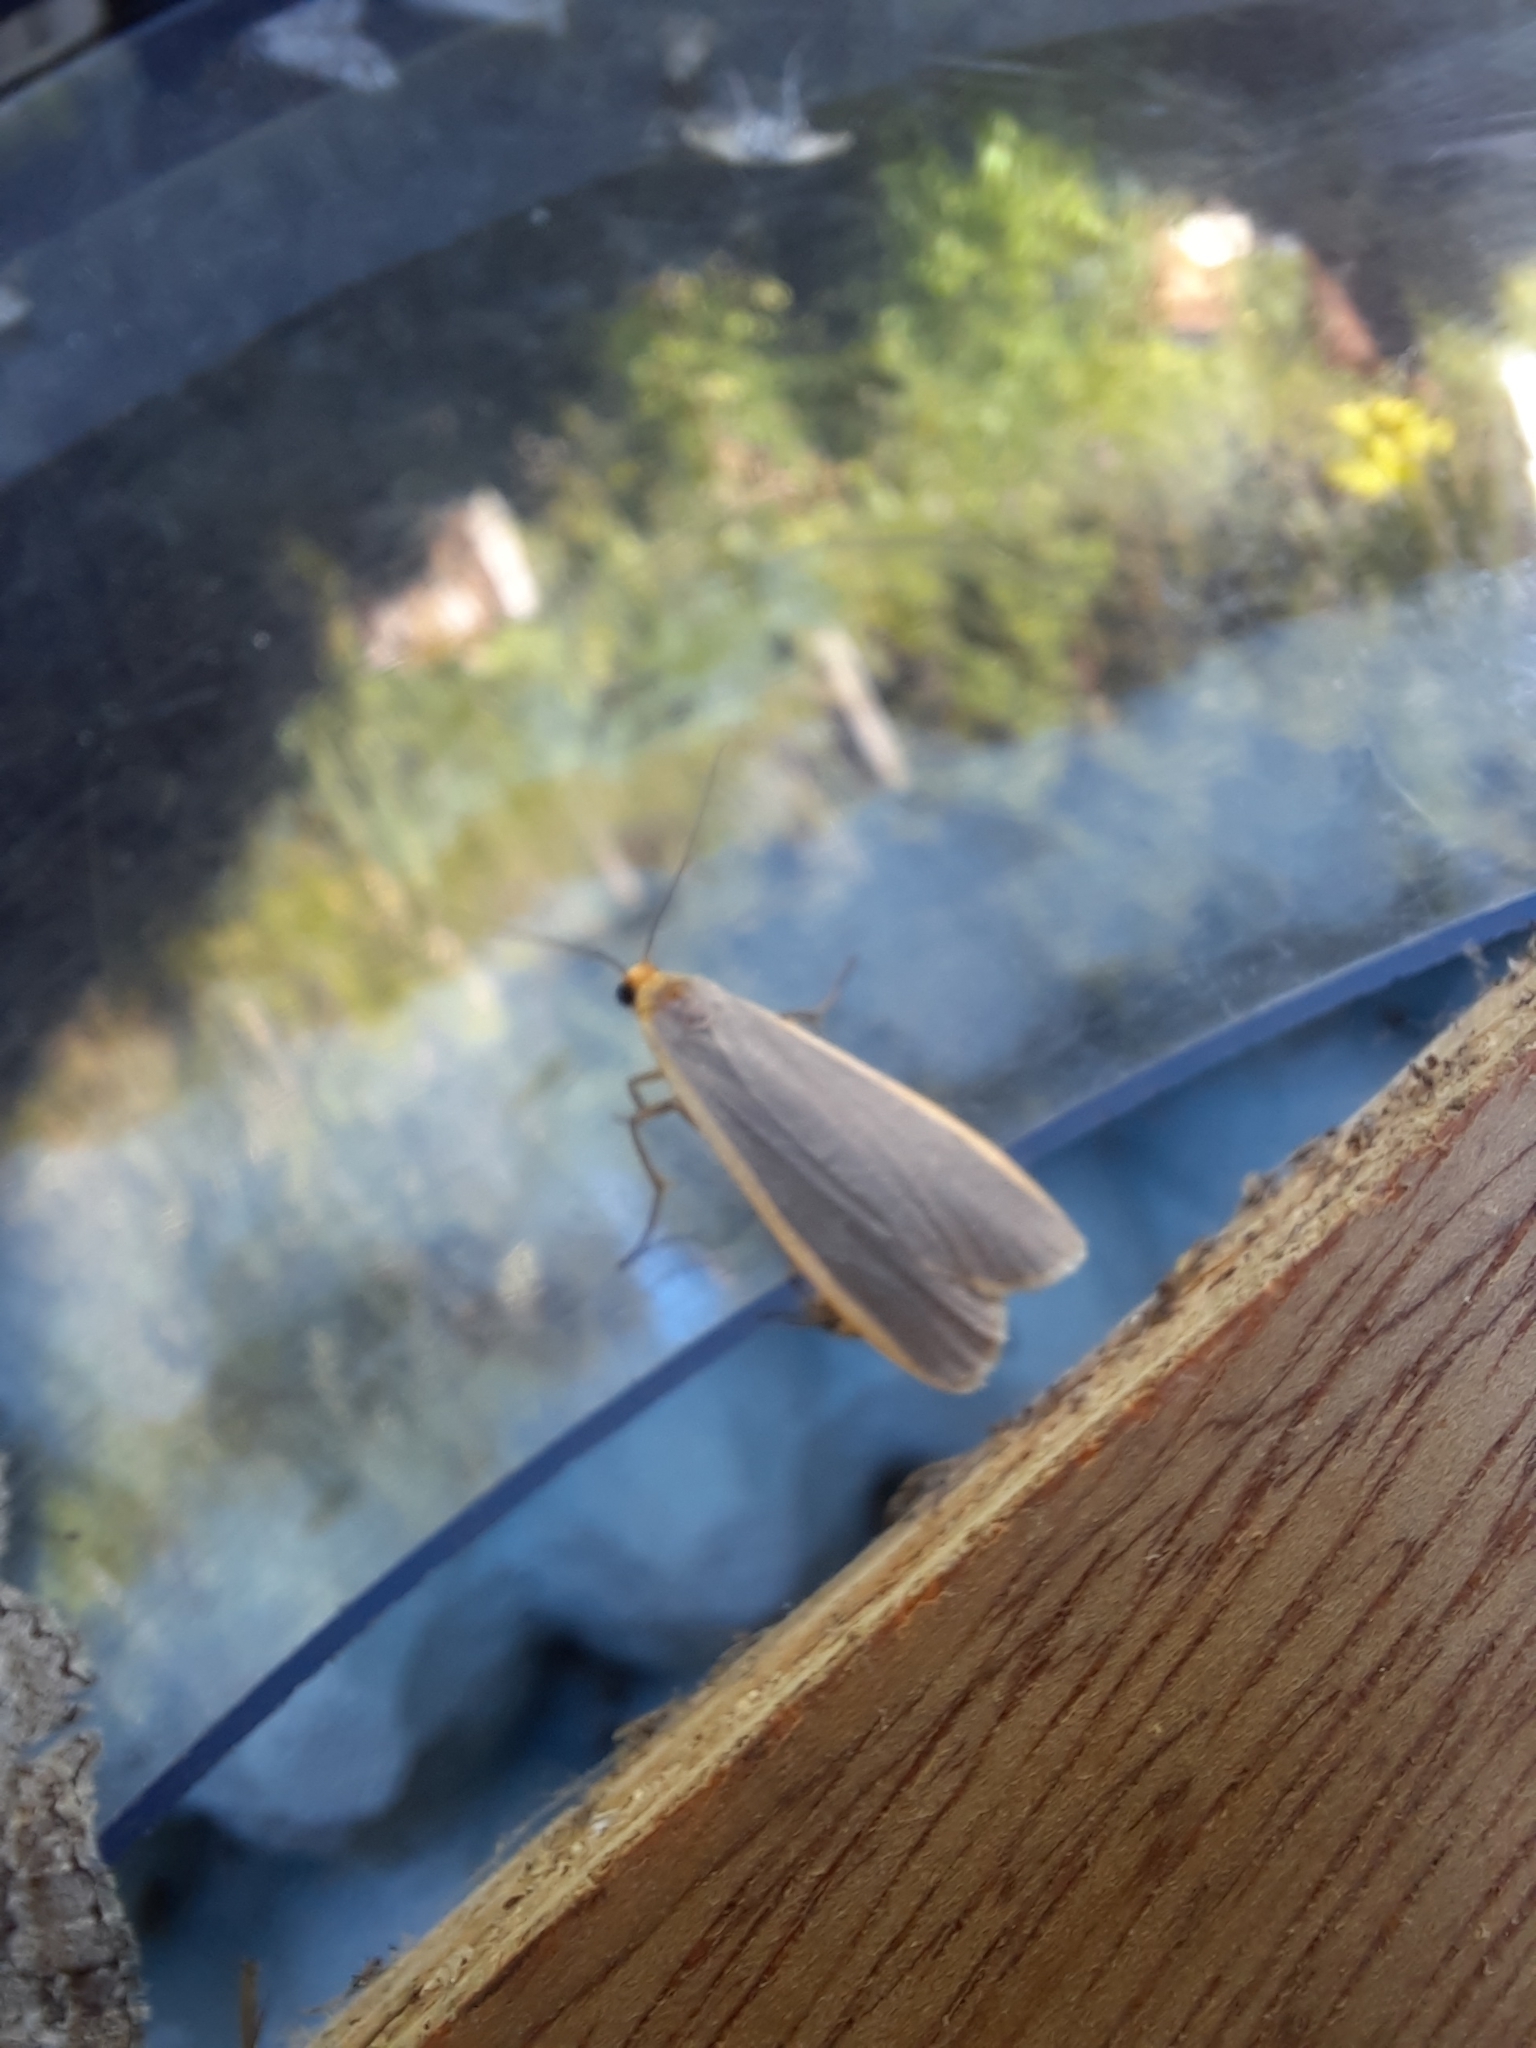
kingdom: Animalia
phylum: Arthropoda
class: Insecta
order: Lepidoptera
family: Erebidae
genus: Nyea
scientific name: Nyea lurideola
